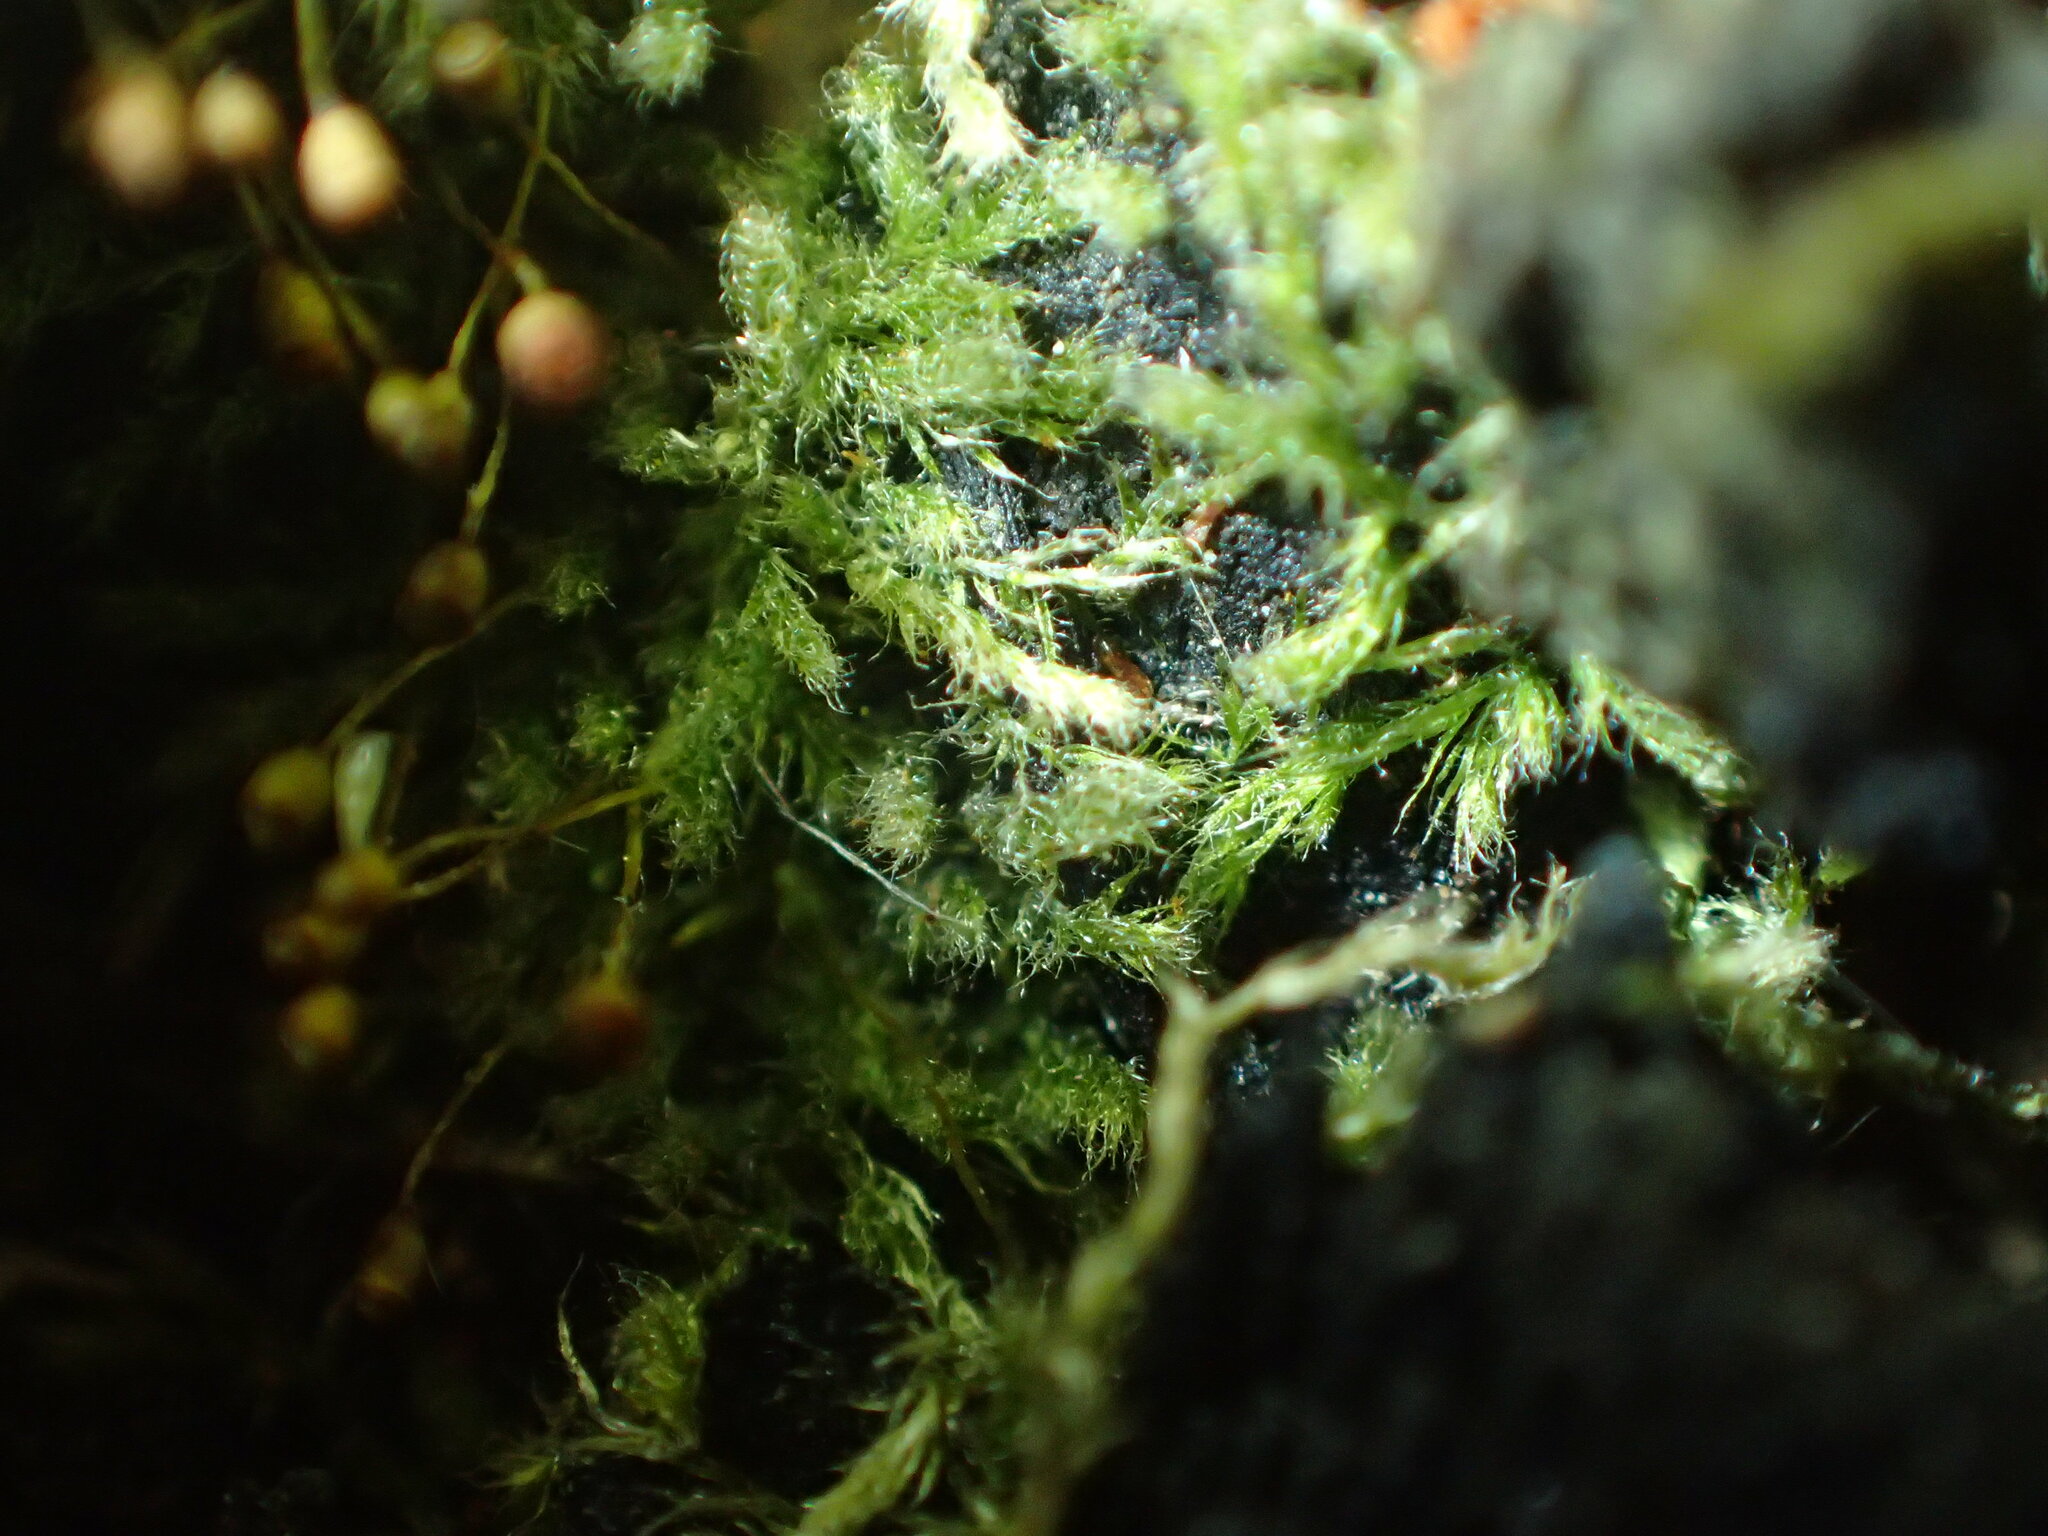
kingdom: Plantae
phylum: Bryophyta
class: Bryopsida
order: Hypnales
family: Fabroniaceae
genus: Fabronia
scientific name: Fabronia hampeana
